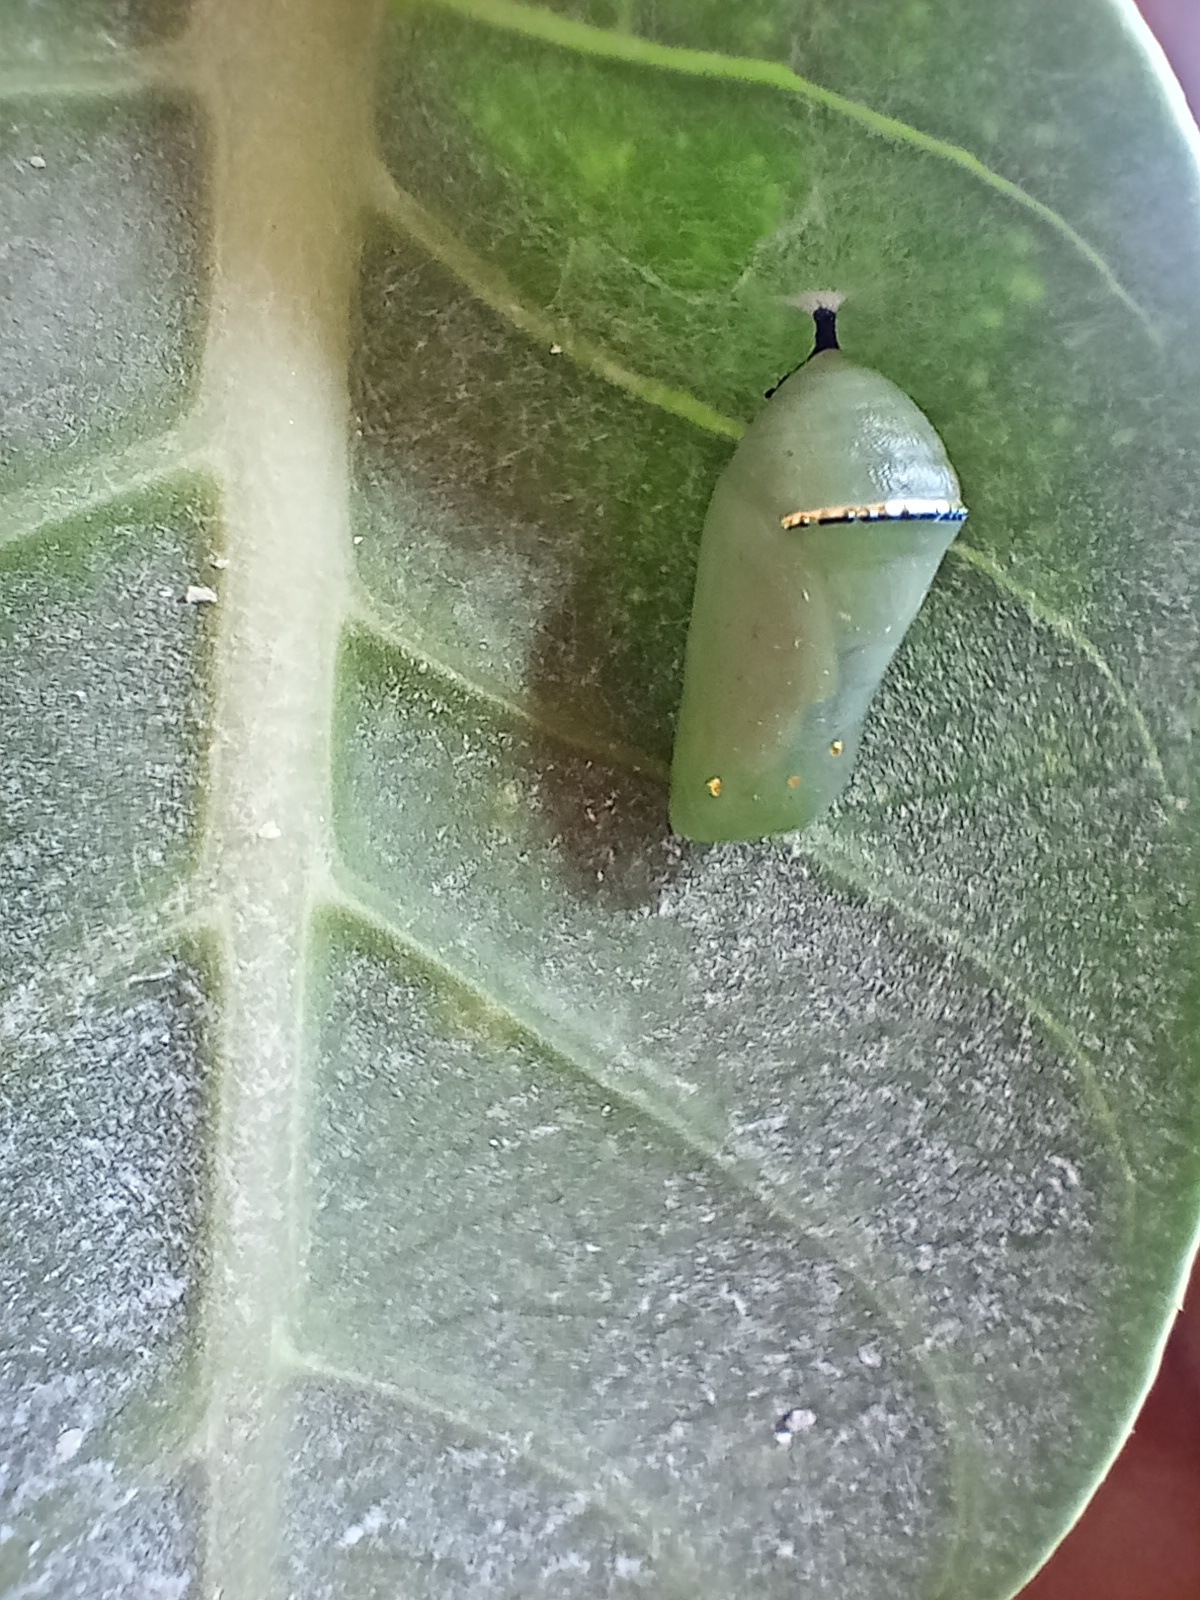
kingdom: Animalia
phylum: Arthropoda
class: Insecta
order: Lepidoptera
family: Nymphalidae
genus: Danaus
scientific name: Danaus chrysippus
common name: Plain tiger
